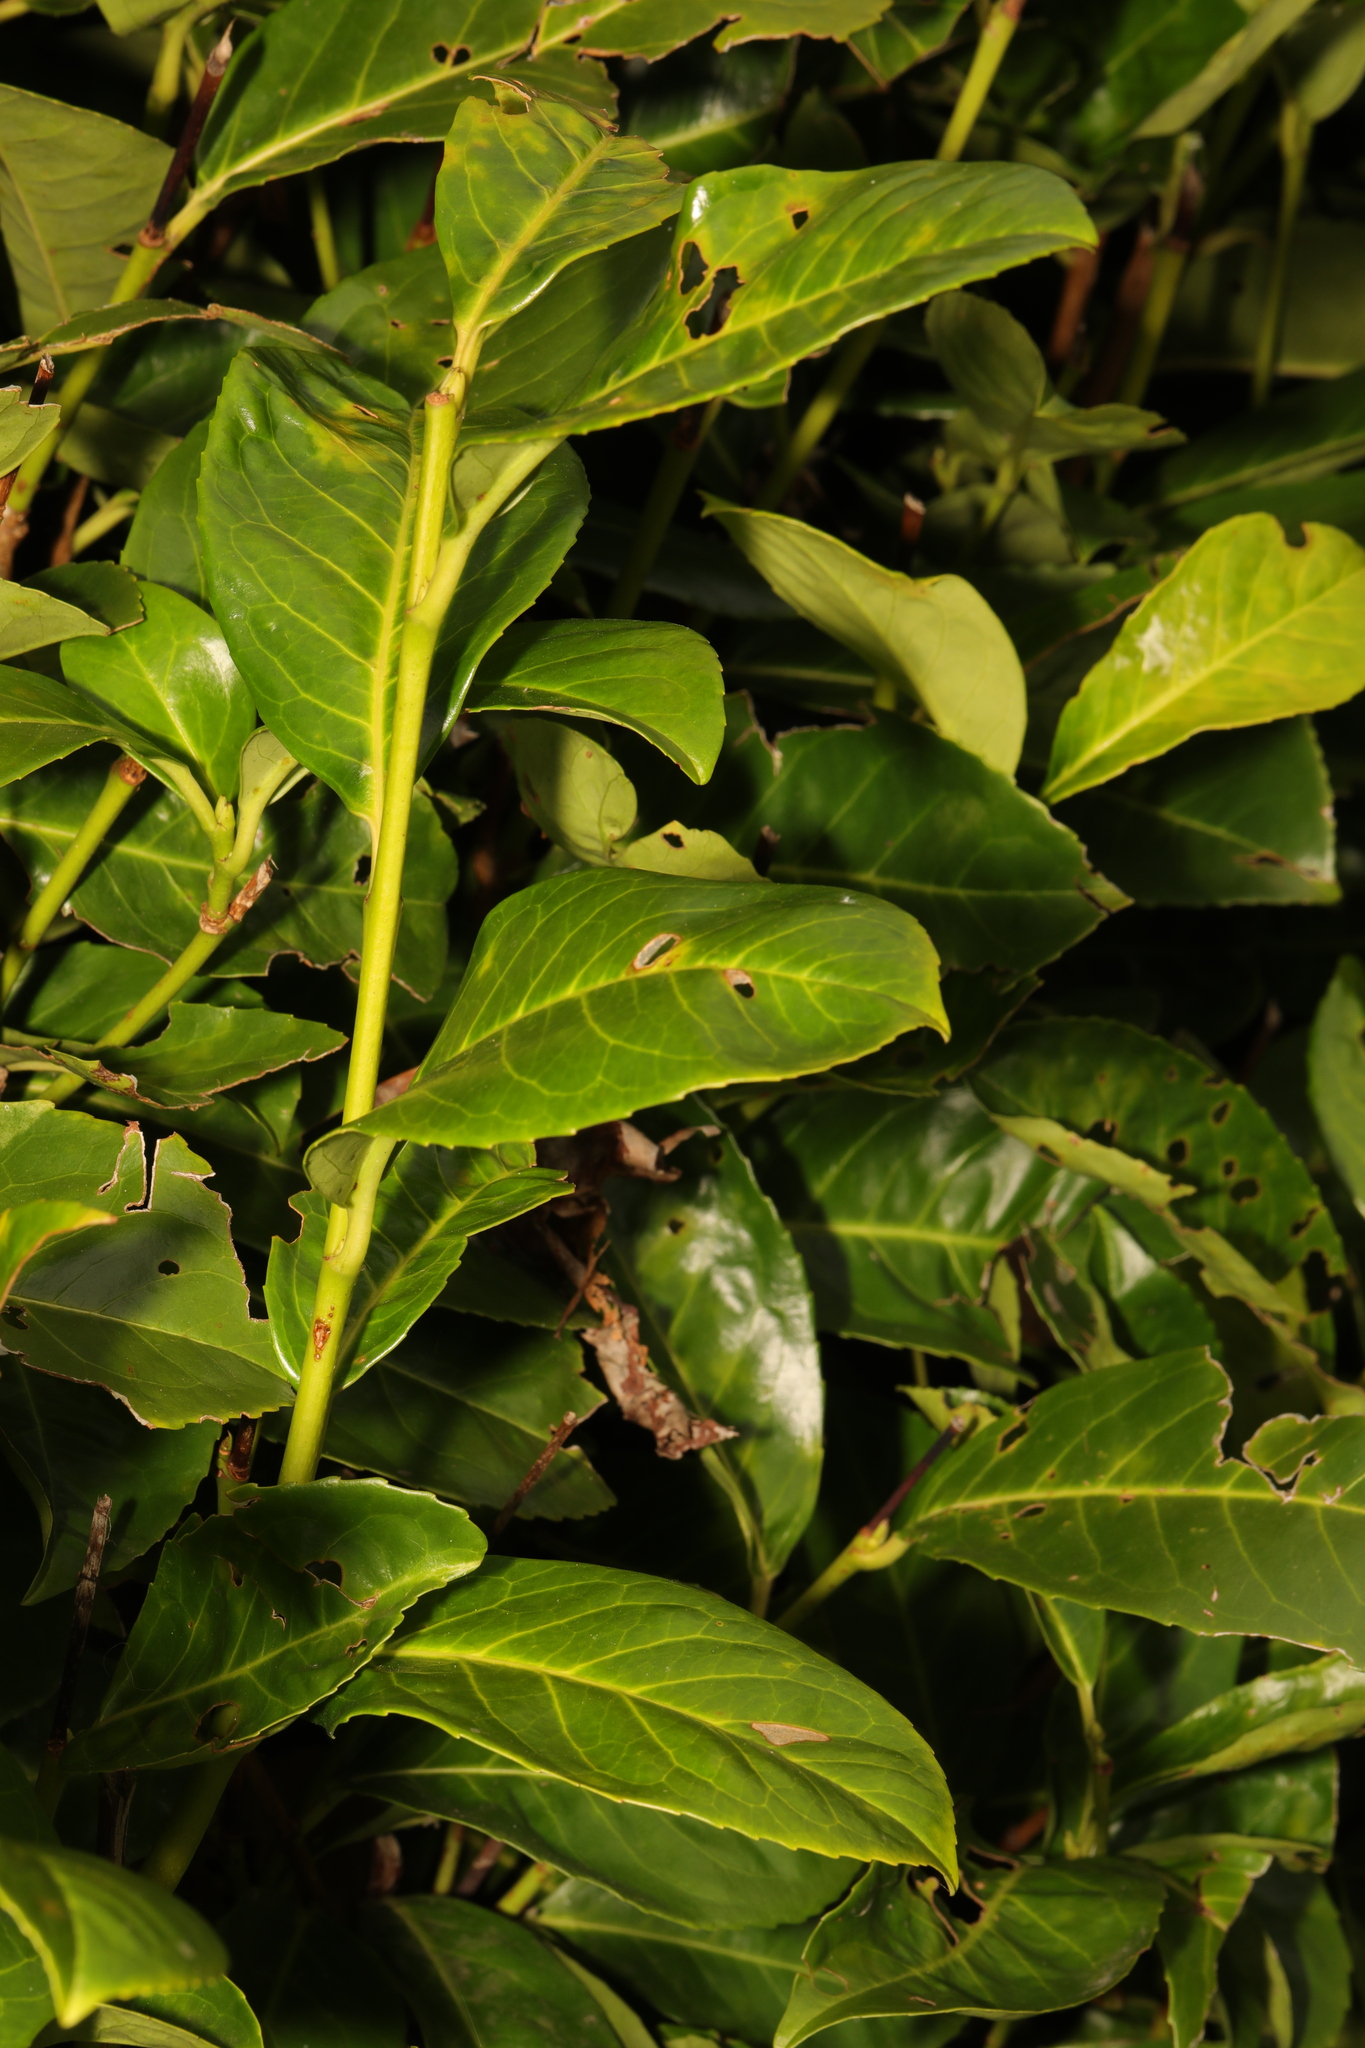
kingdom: Plantae
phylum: Tracheophyta
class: Magnoliopsida
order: Rosales
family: Rosaceae
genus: Prunus
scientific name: Prunus laurocerasus
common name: Cherry laurel
